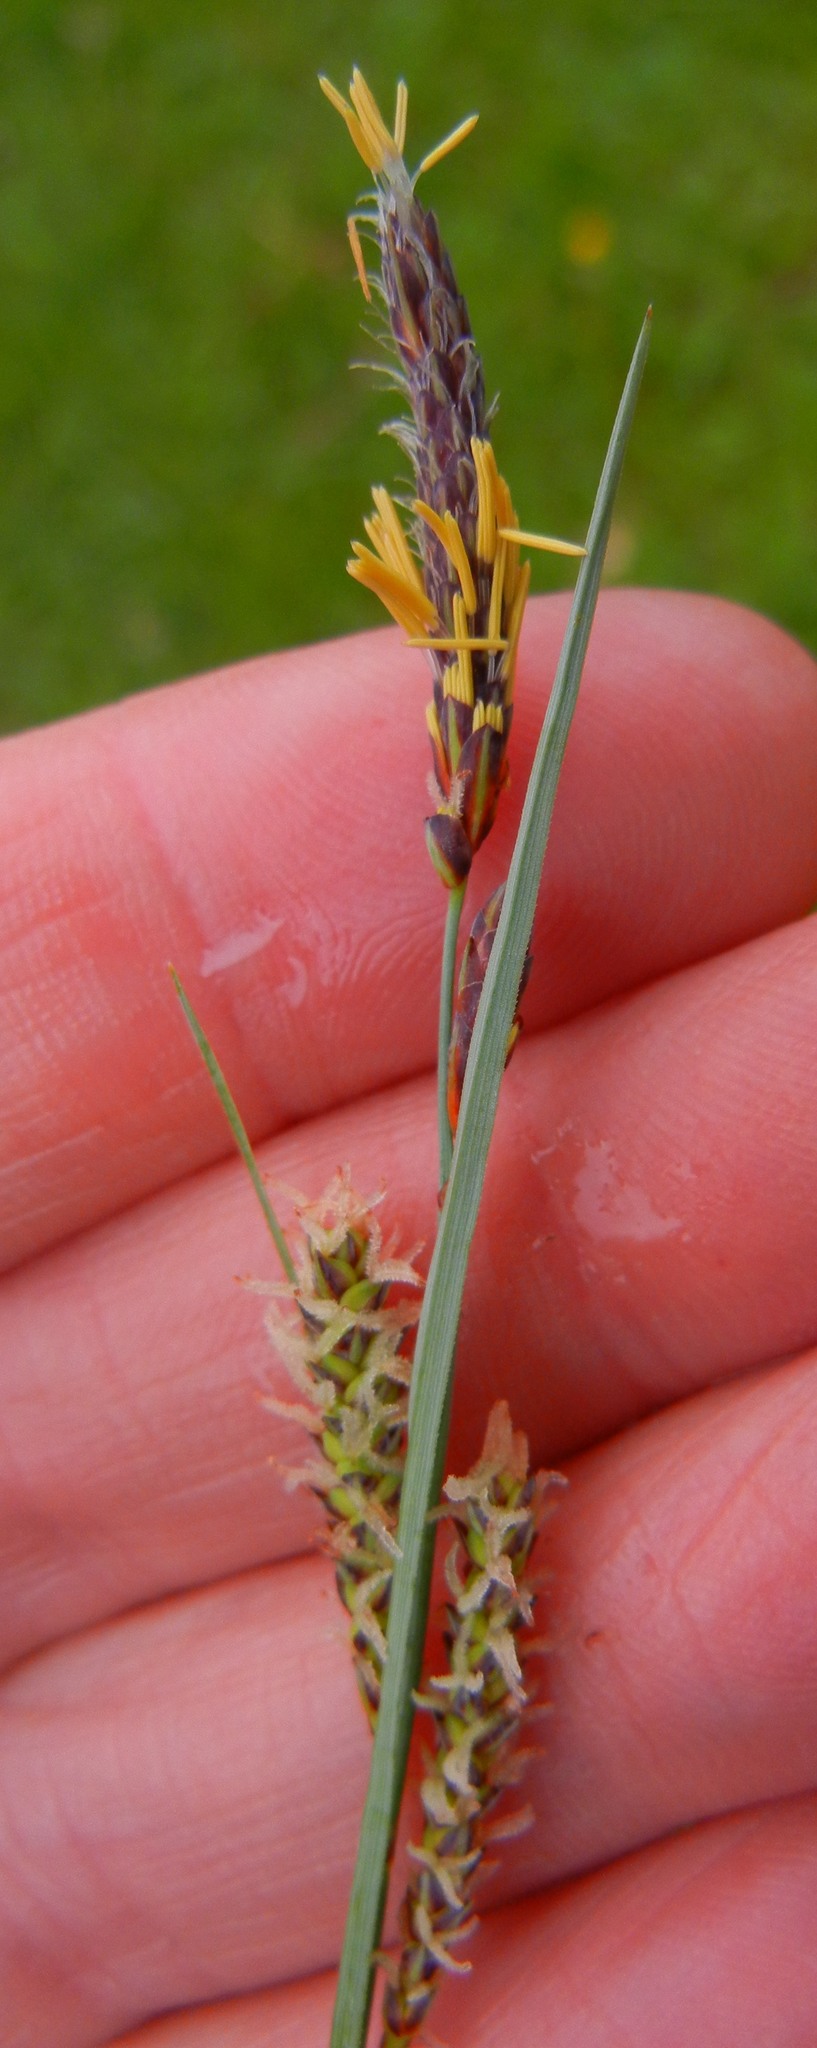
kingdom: Plantae
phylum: Tracheophyta
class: Liliopsida
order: Poales
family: Cyperaceae
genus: Carex
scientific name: Carex flacca
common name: Glaucous sedge
